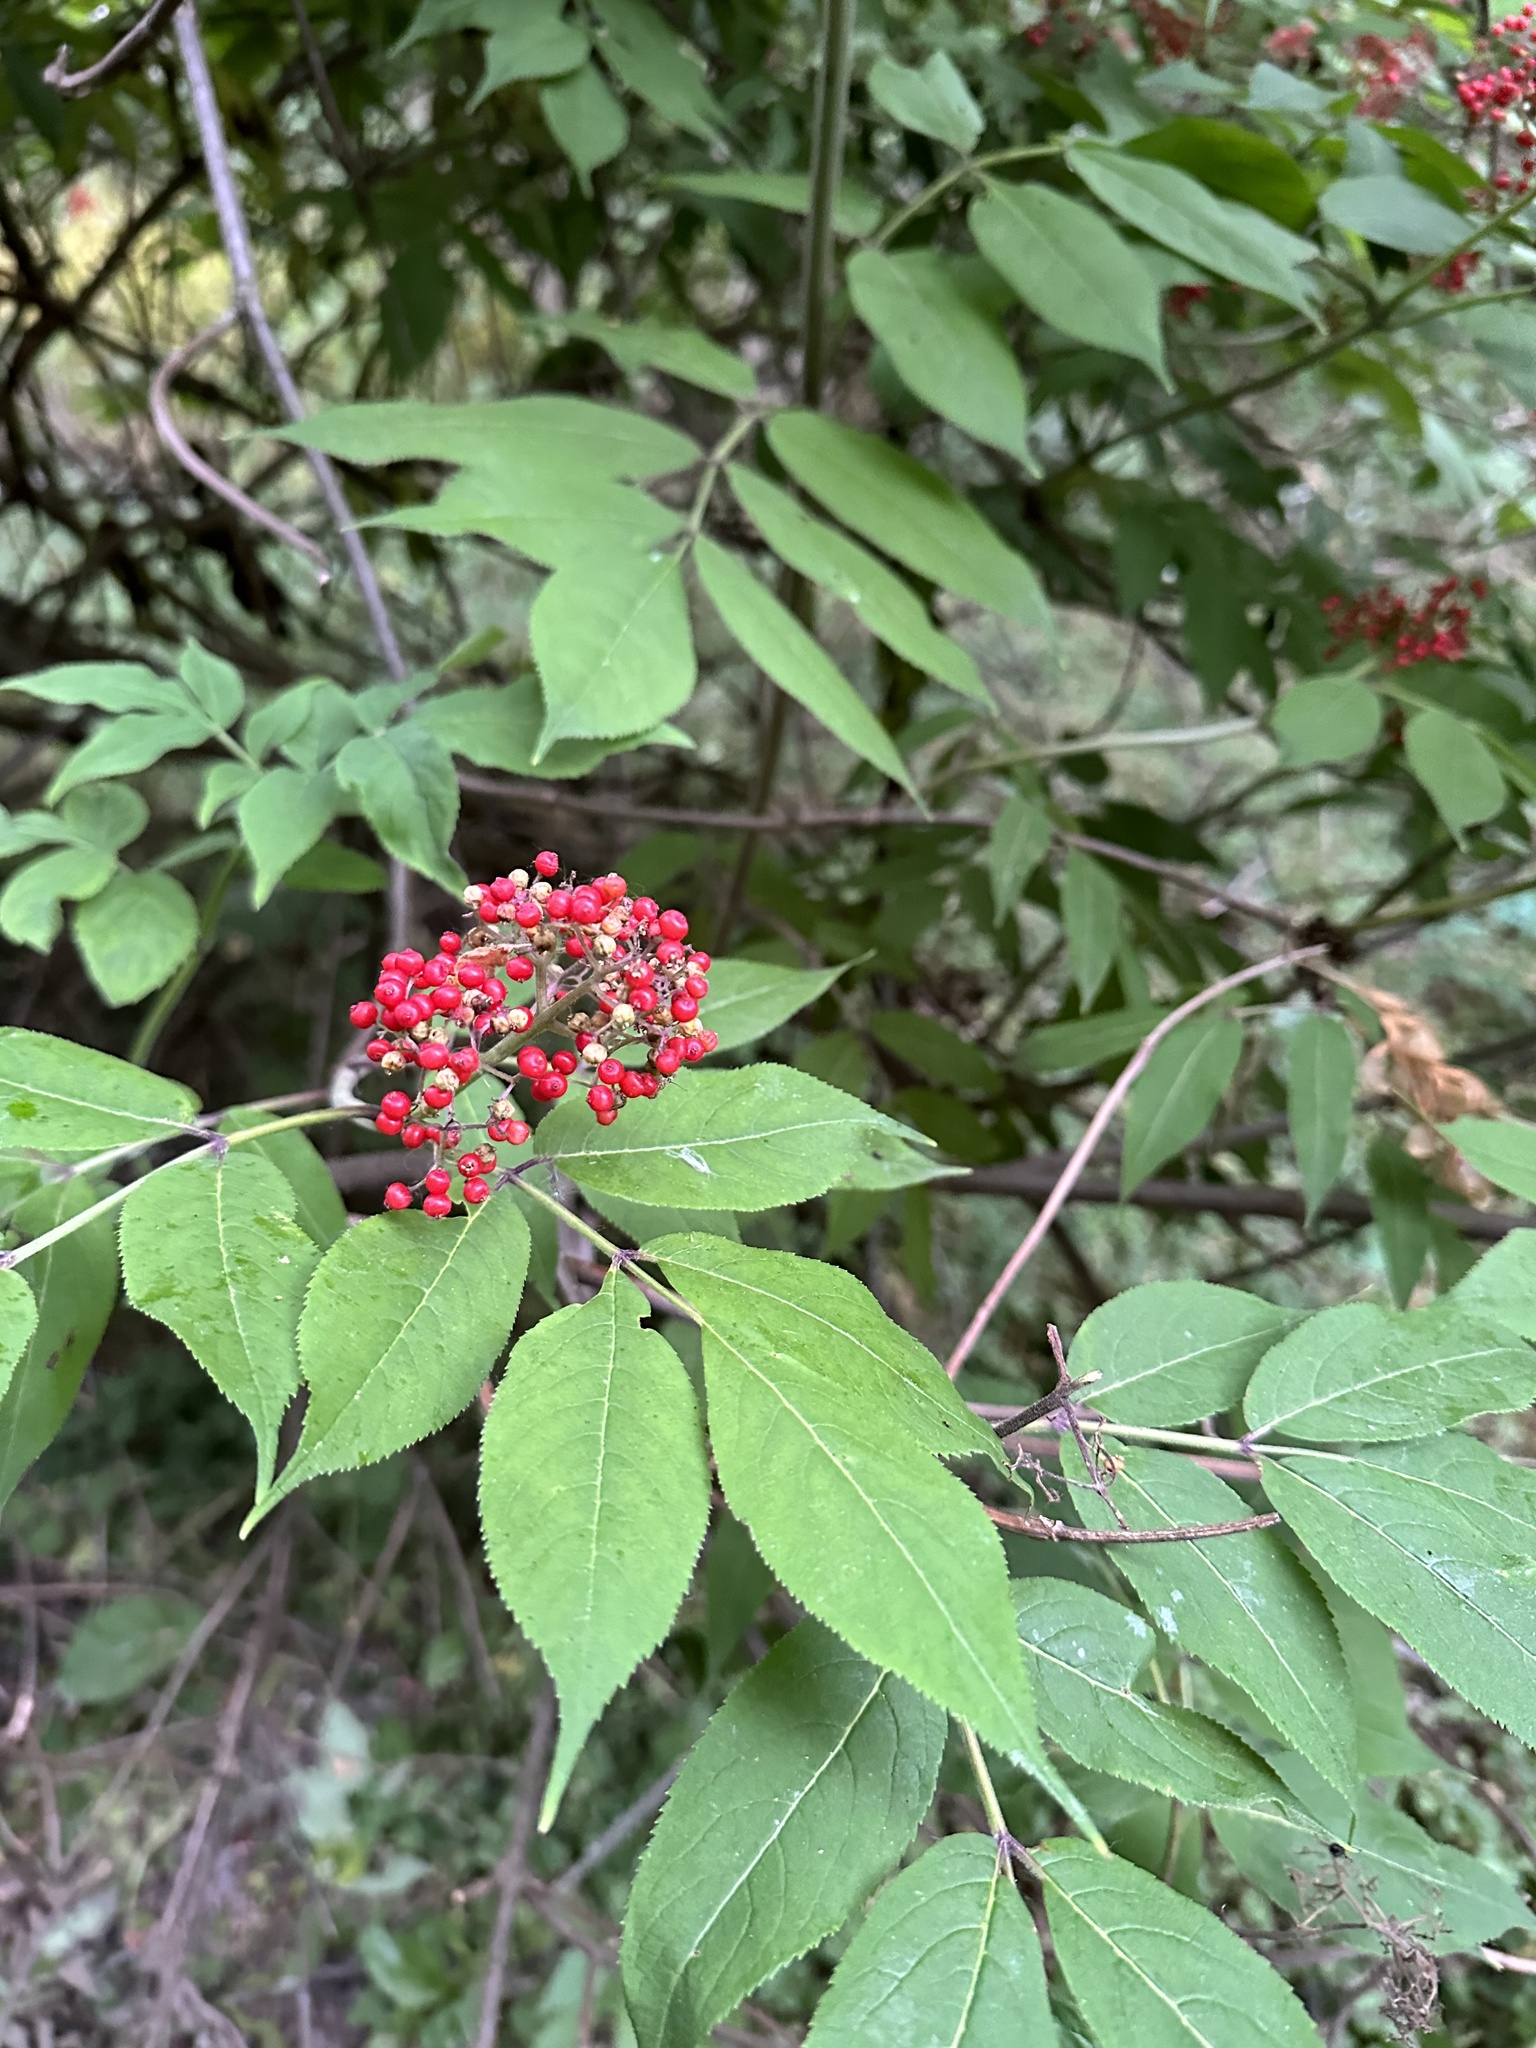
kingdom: Plantae
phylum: Tracheophyta
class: Magnoliopsida
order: Dipsacales
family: Viburnaceae
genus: Sambucus
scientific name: Sambucus racemosa
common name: Red-berried elder
